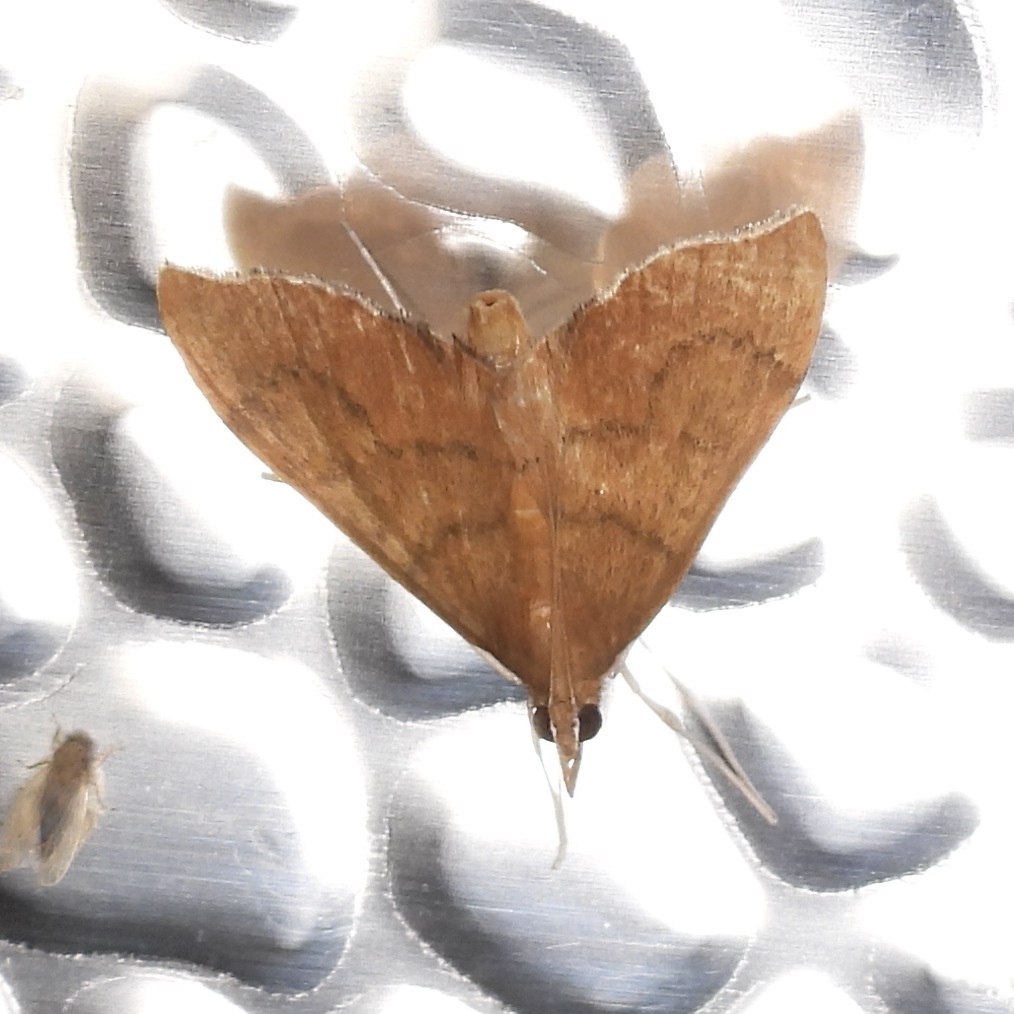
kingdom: Animalia
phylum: Arthropoda
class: Insecta
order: Lepidoptera
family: Crambidae
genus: Sericoplaga
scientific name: Sericoplaga externalis
